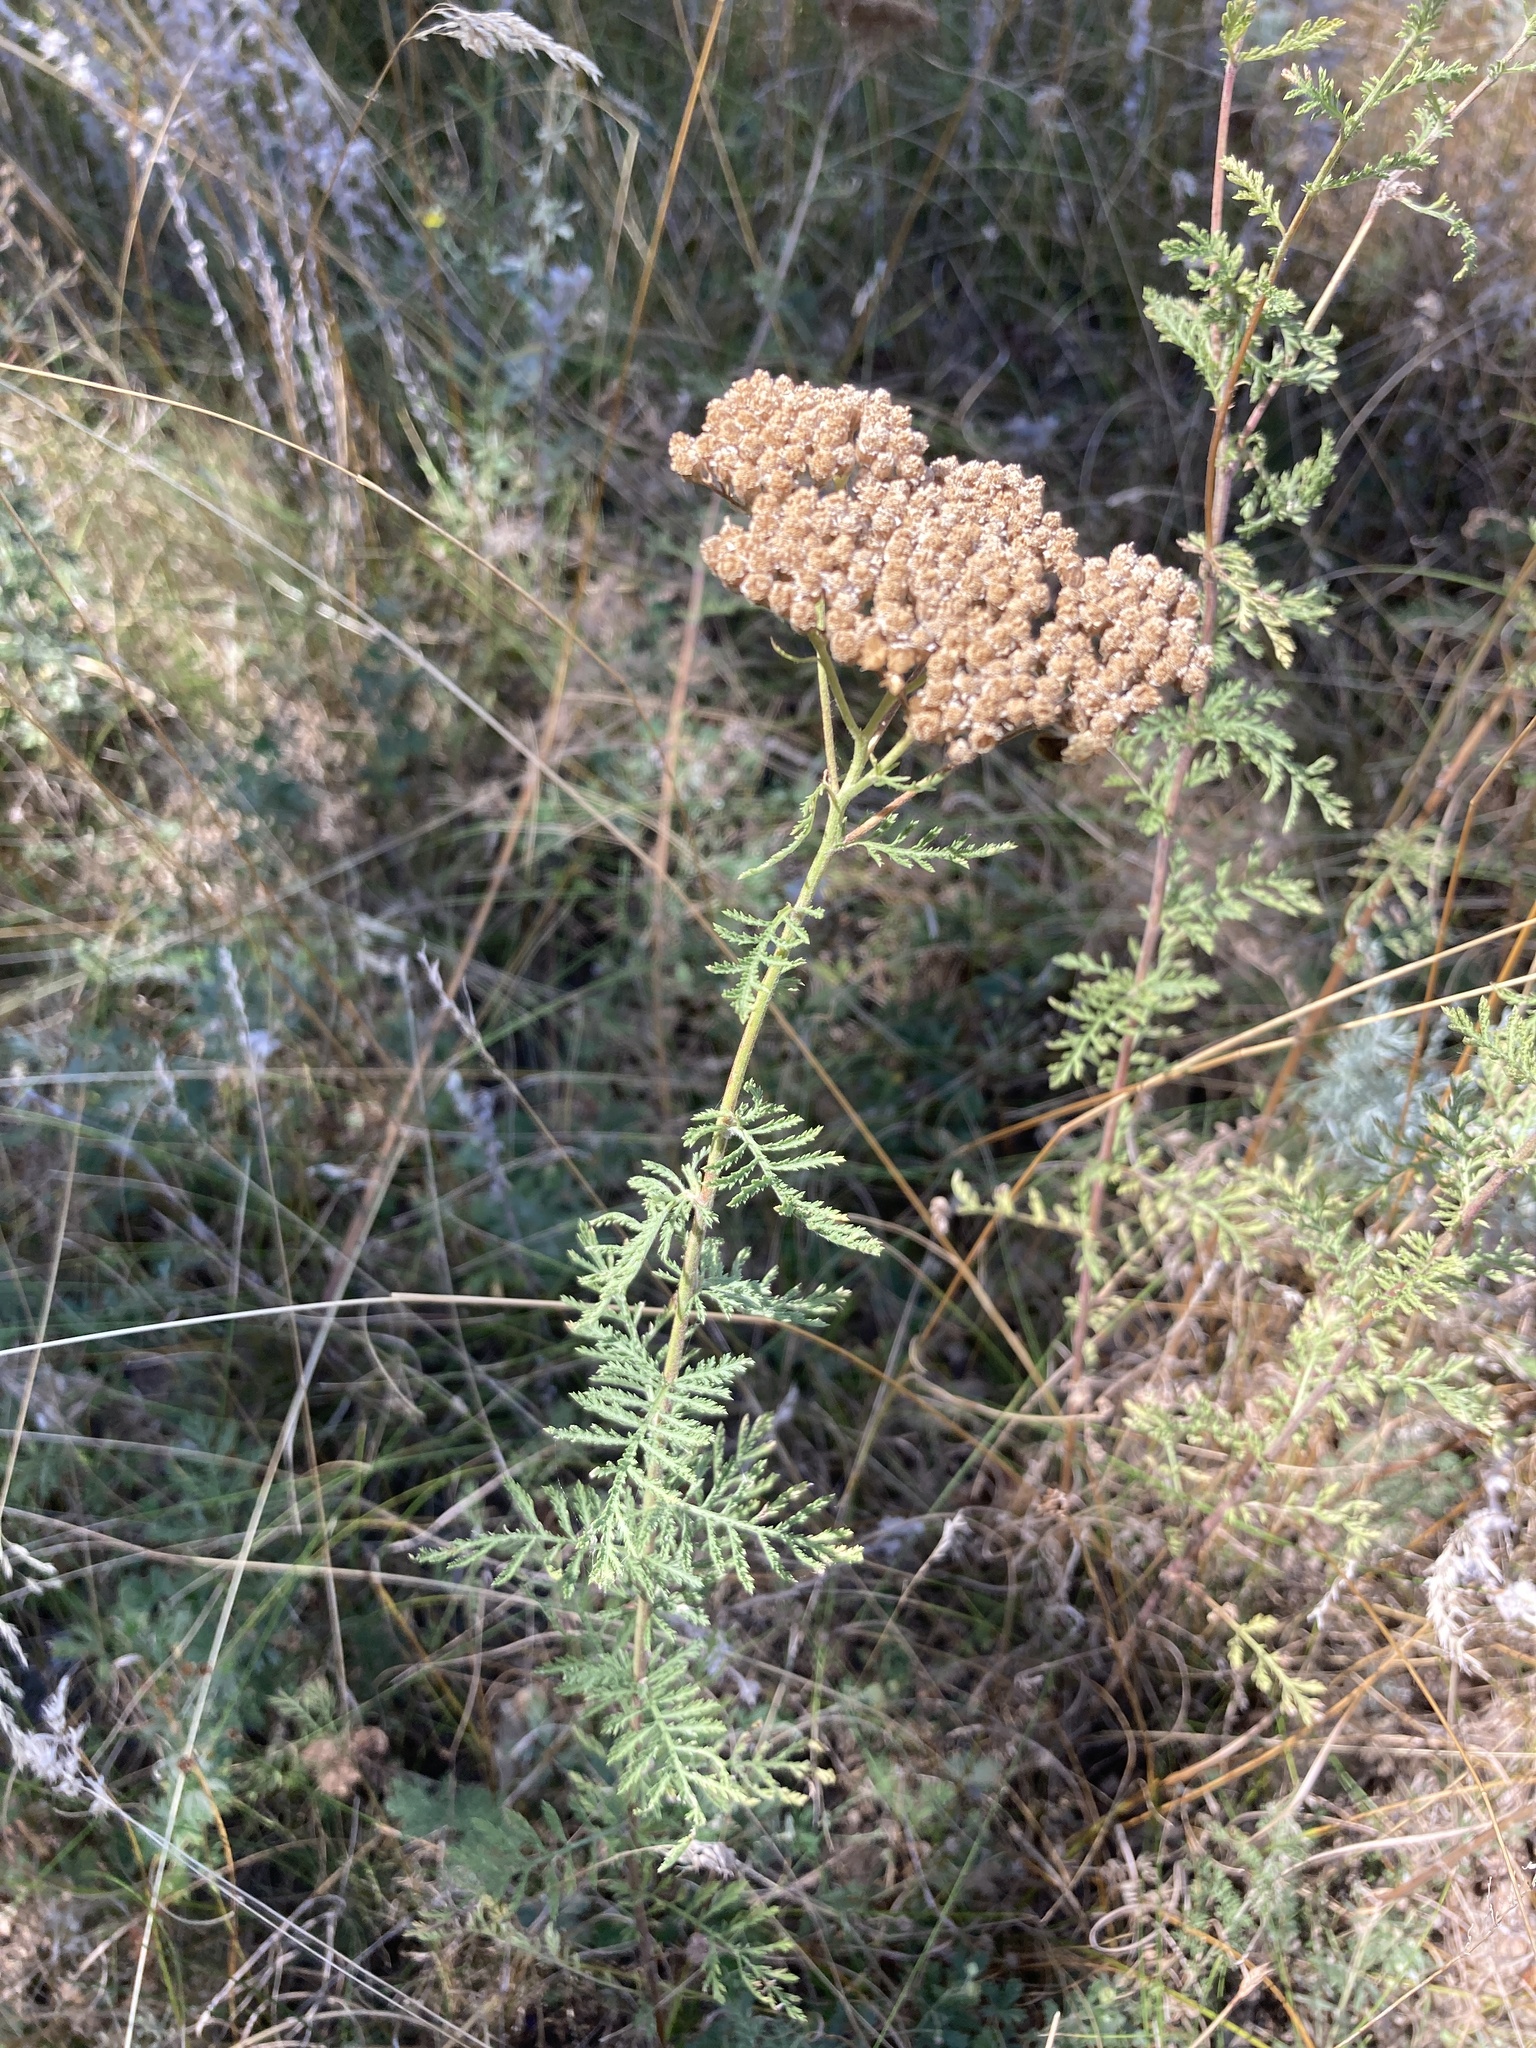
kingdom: Plantae
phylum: Tracheophyta
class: Magnoliopsida
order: Asterales
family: Asteraceae
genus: Achillea
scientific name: Achillea nobilis
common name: Noble yarrow
